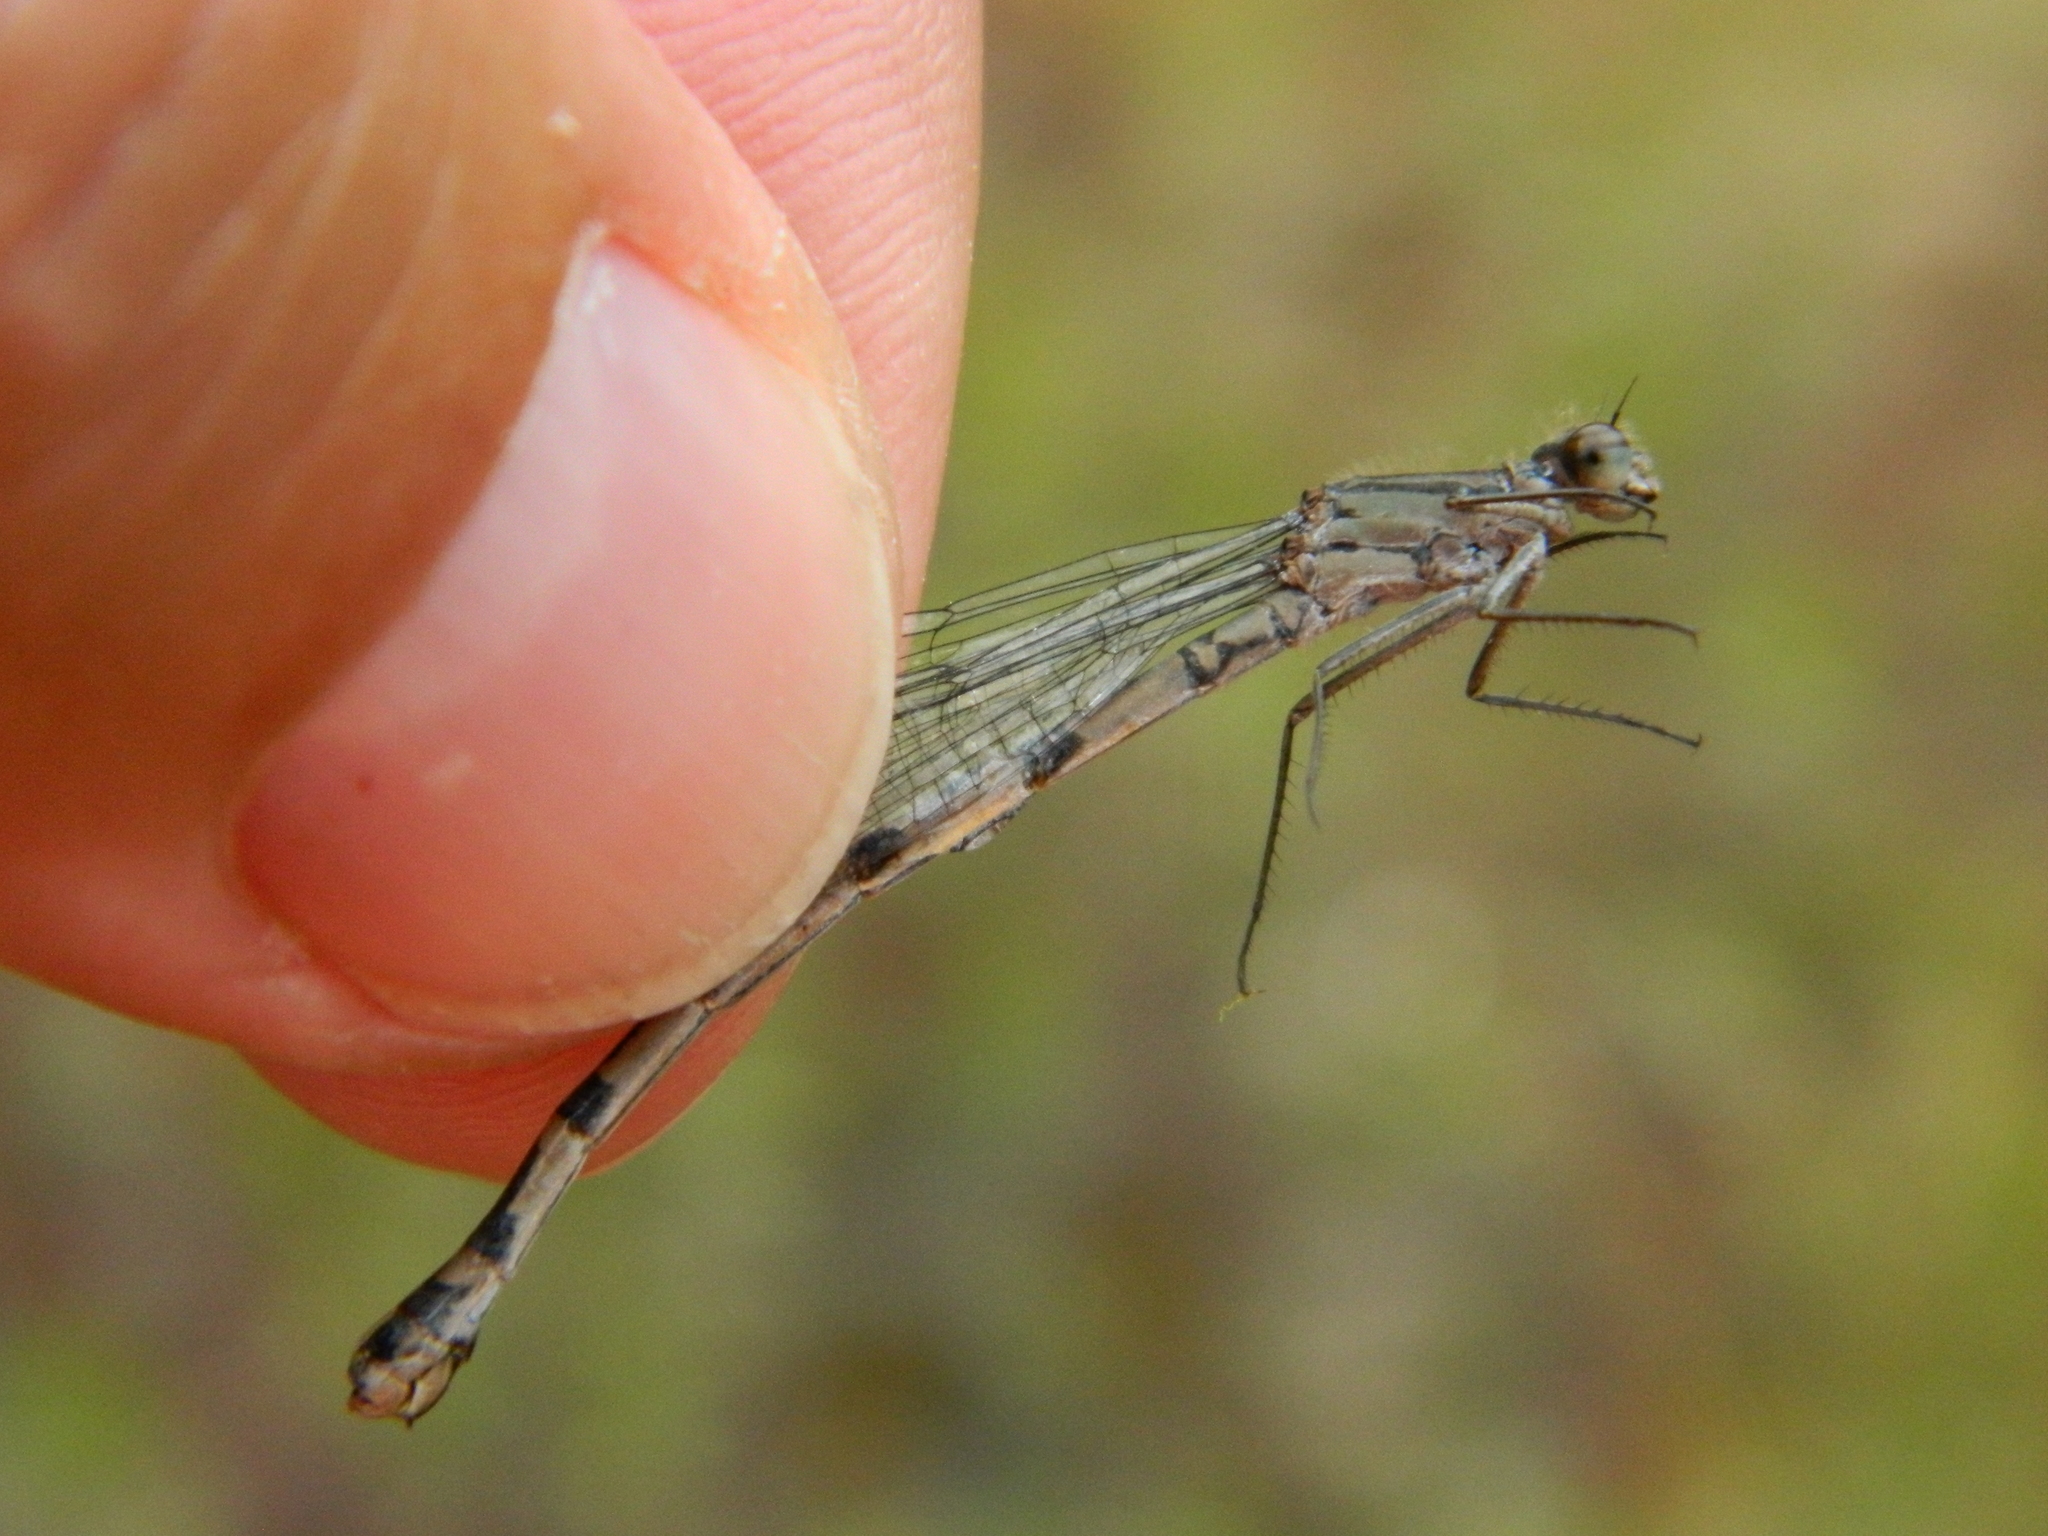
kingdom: Animalia
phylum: Arthropoda
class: Insecta
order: Odonata
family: Coenagrionidae
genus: Enallagma
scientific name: Enallagma annexum
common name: Northern bluet
